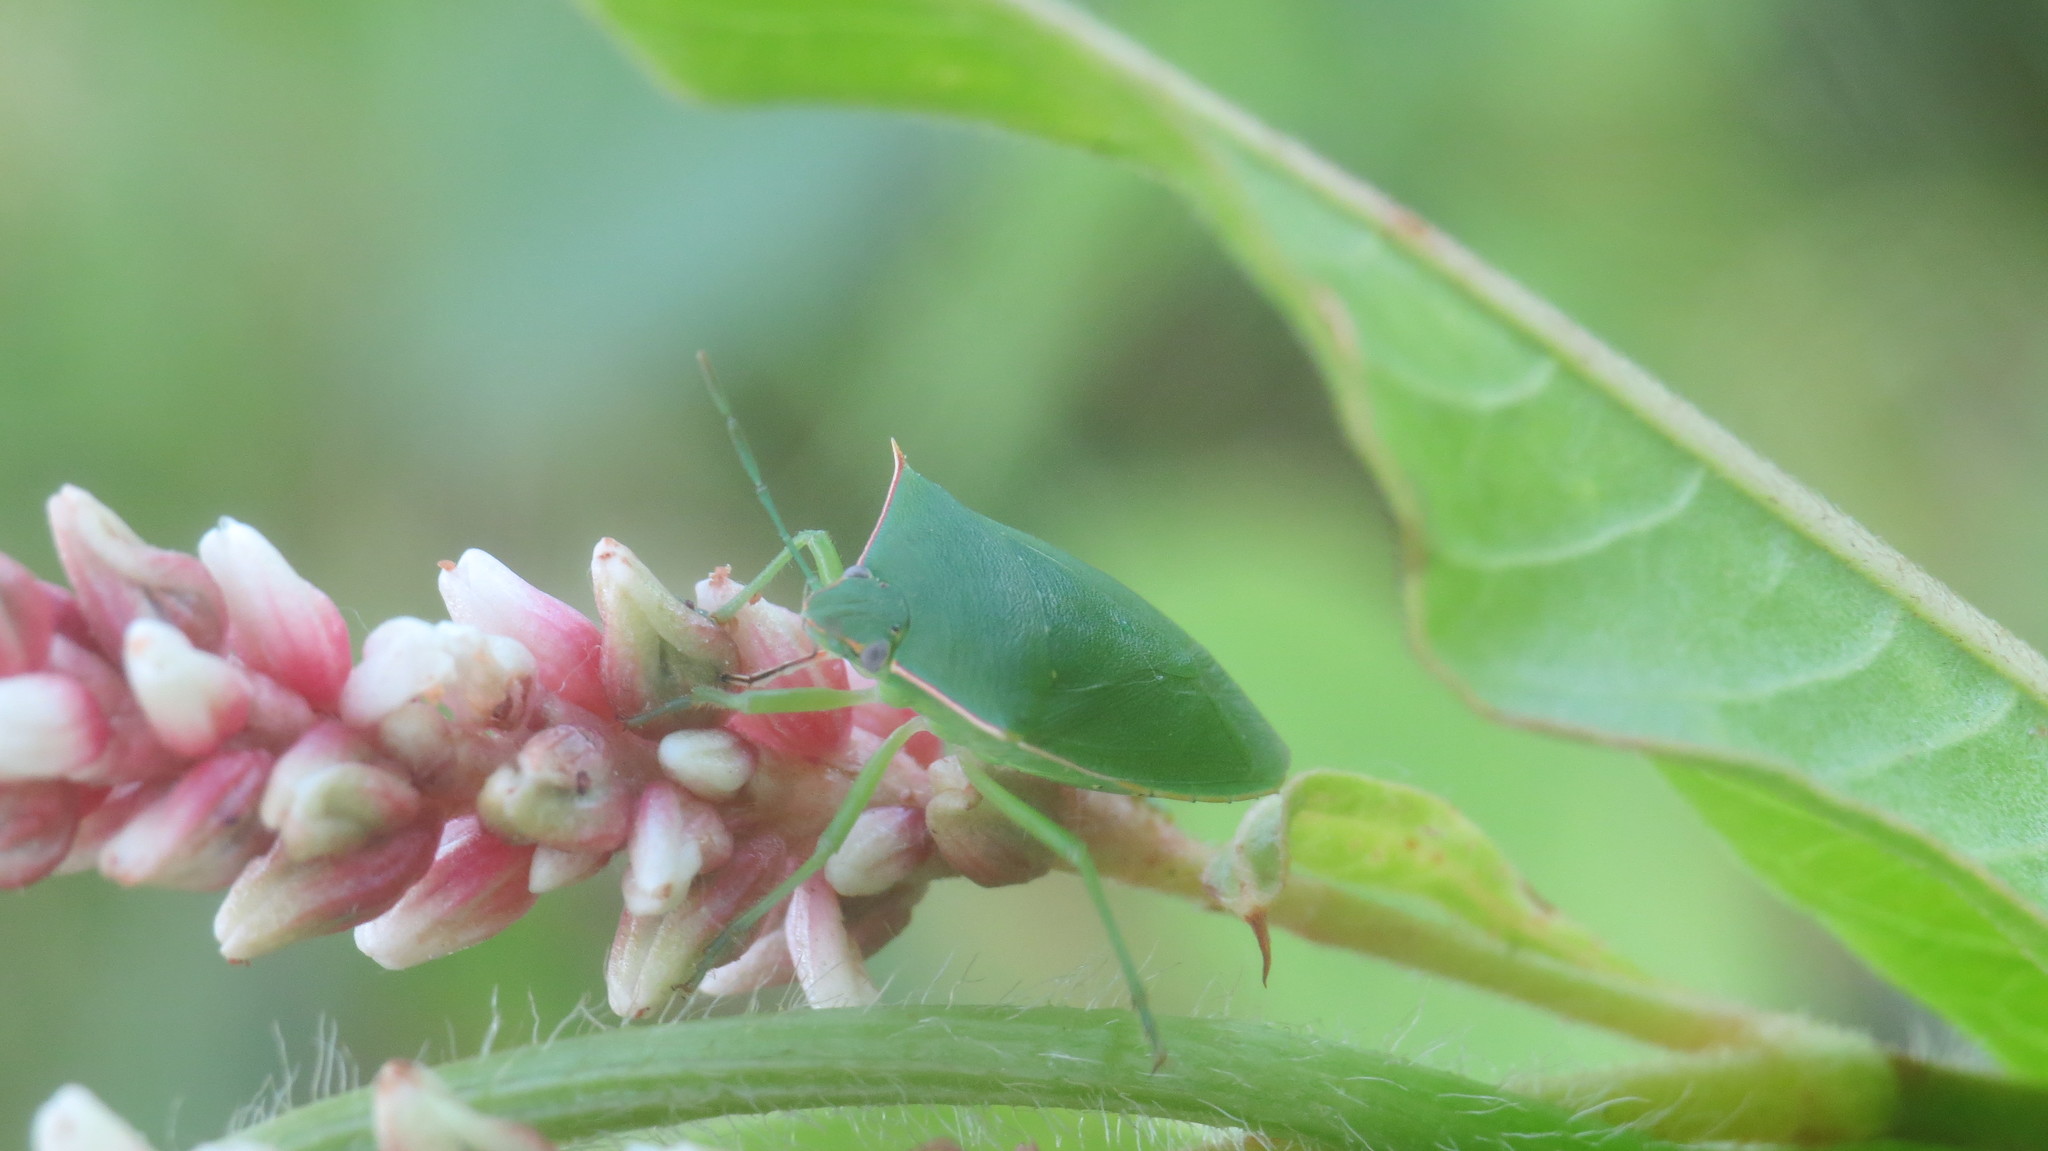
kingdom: Animalia
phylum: Arthropoda
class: Insecta
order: Hemiptera
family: Pentatomidae
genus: Chinavia
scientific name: Chinavia nigridorsata
